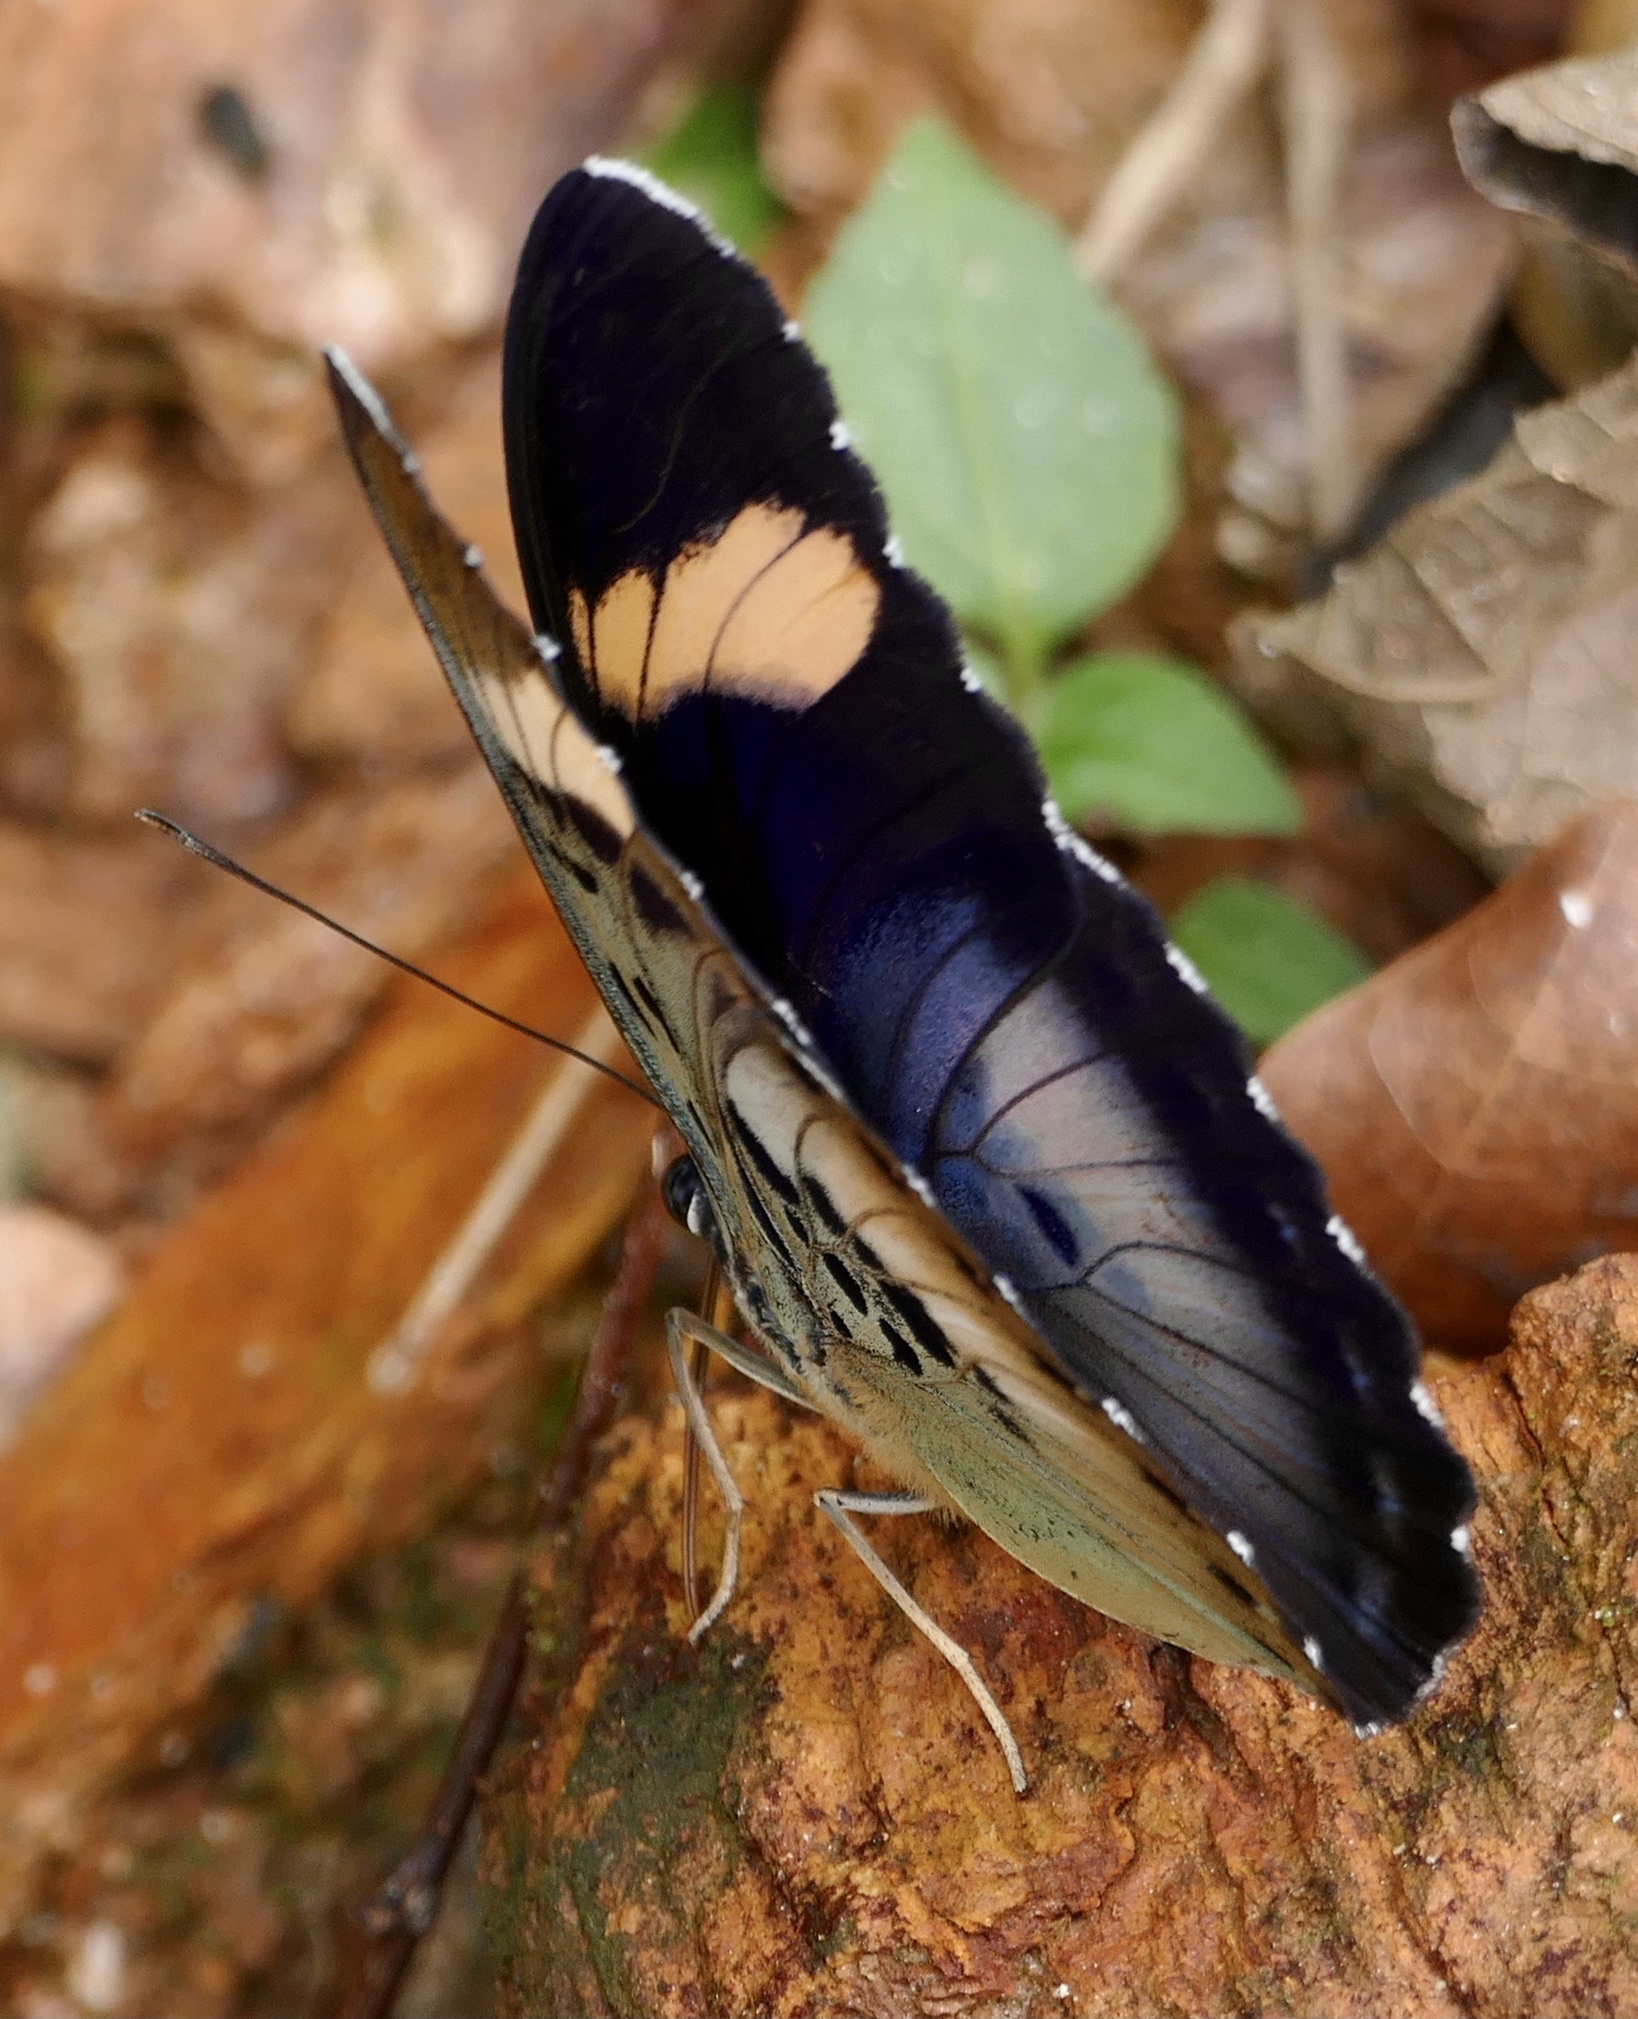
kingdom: Animalia
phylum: Arthropoda
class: Insecta
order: Lepidoptera
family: Nymphalidae
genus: Euphaedra
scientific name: Euphaedra phaethusa
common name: Common ceres forester
